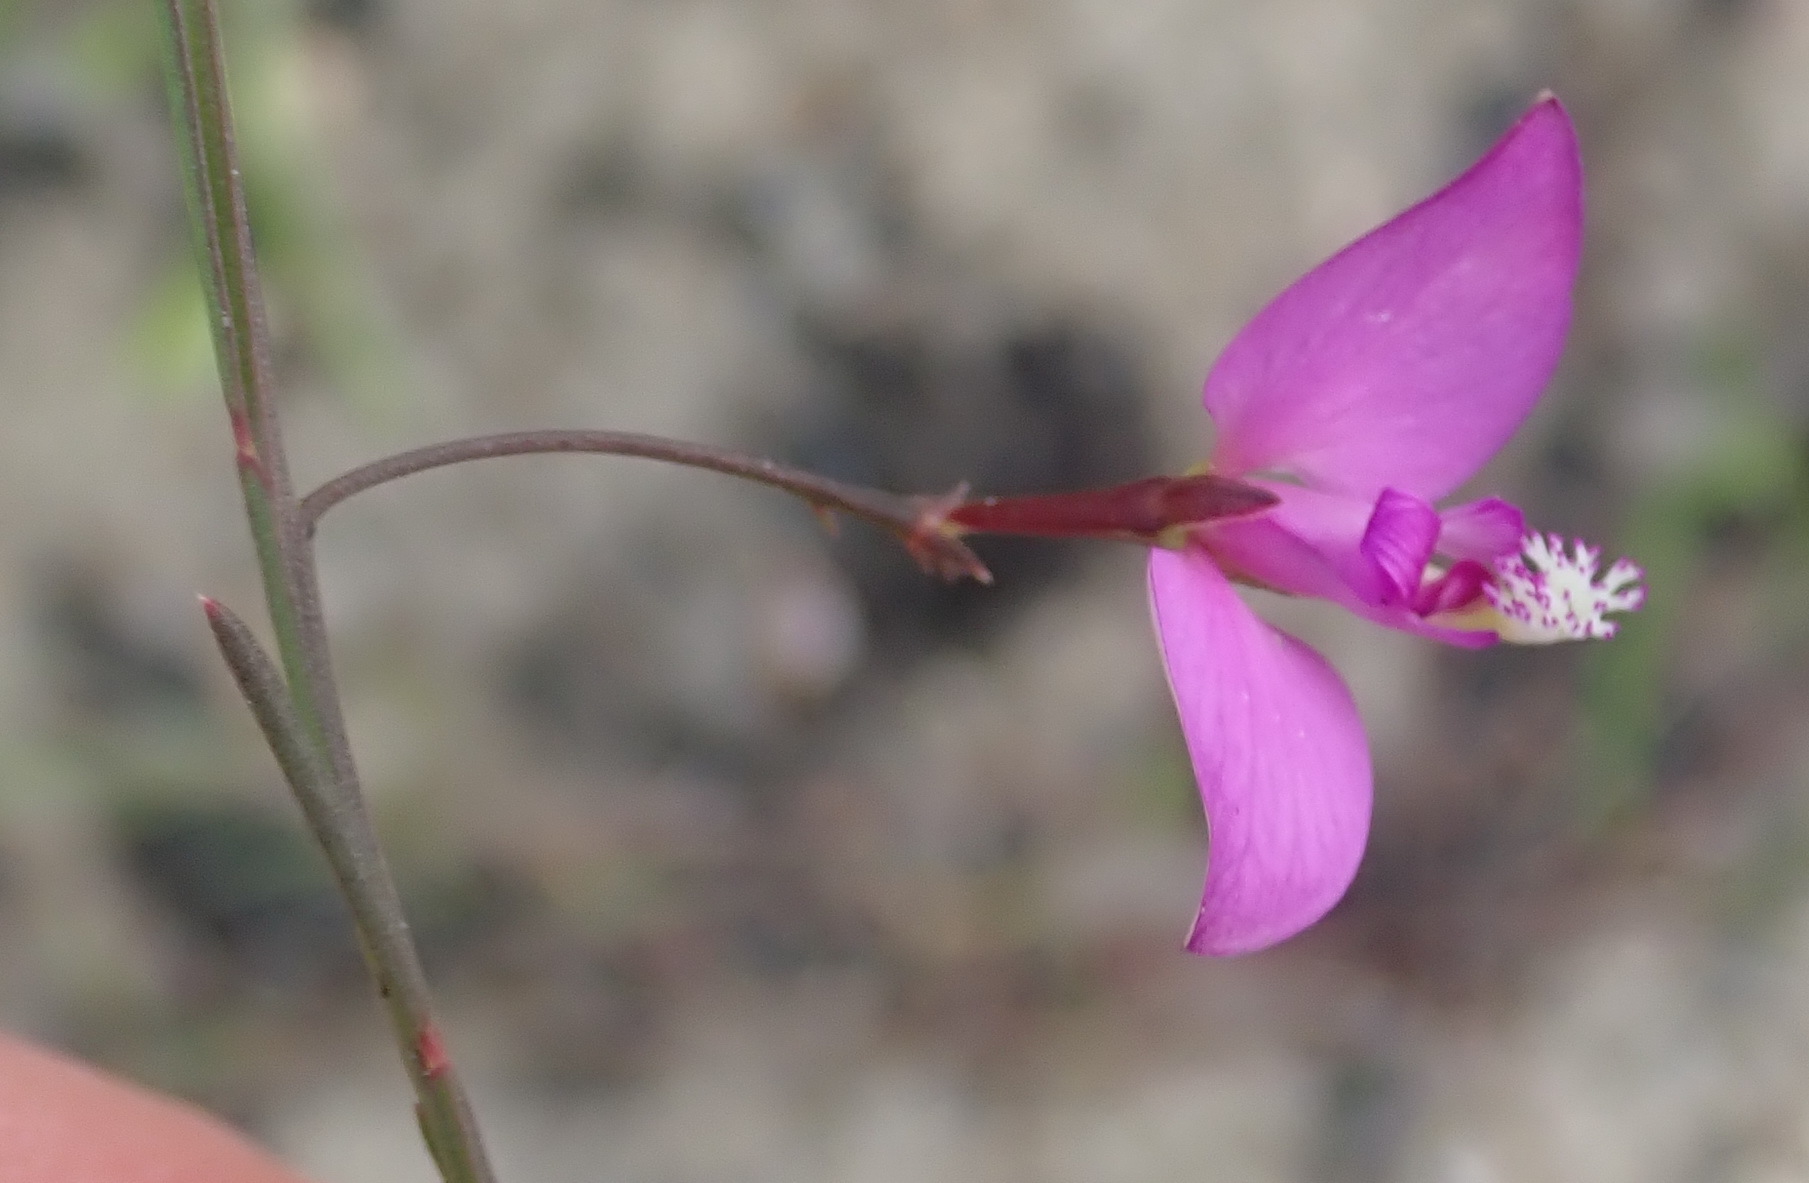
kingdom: Plantae
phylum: Tracheophyta
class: Magnoliopsida
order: Fabales
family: Polygalaceae
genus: Polygala
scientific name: Polygala refracta
